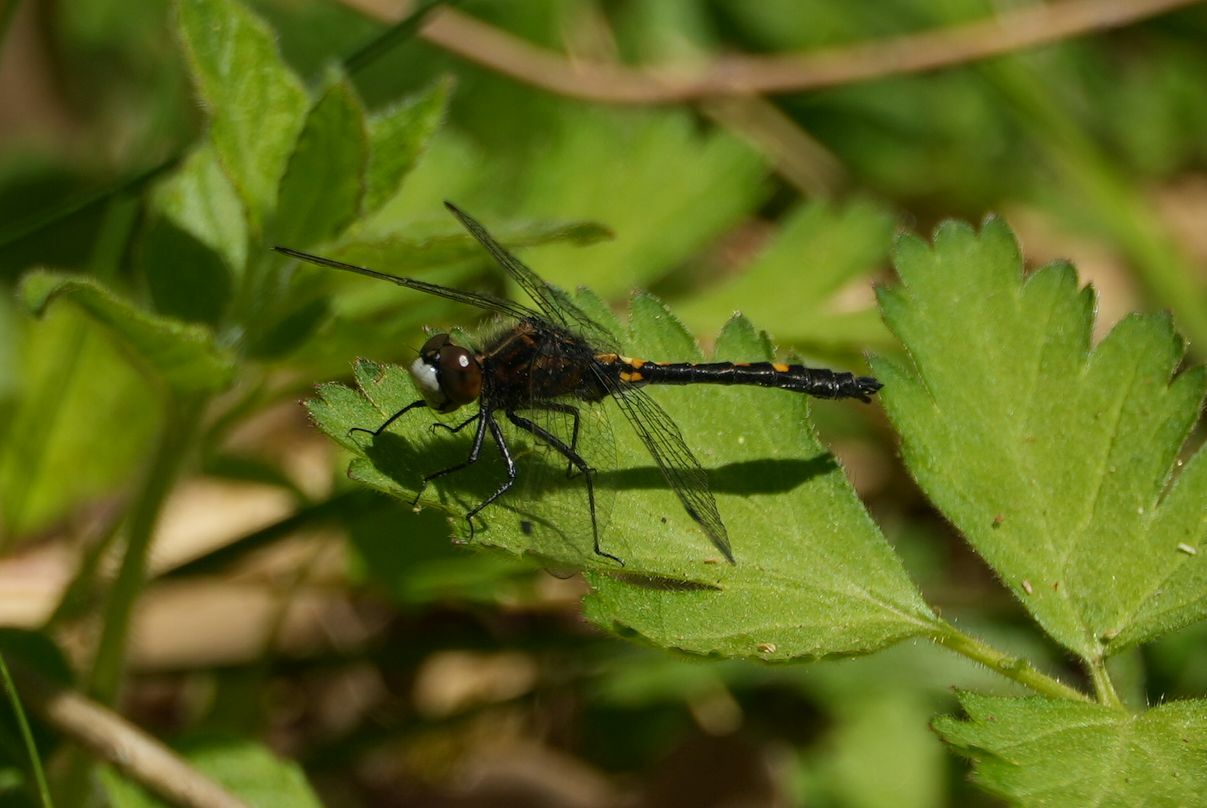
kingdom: Animalia
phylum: Arthropoda
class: Insecta
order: Odonata
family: Libellulidae
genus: Leucorrhinia
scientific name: Leucorrhinia intacta
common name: Dot-tailed whiteface
